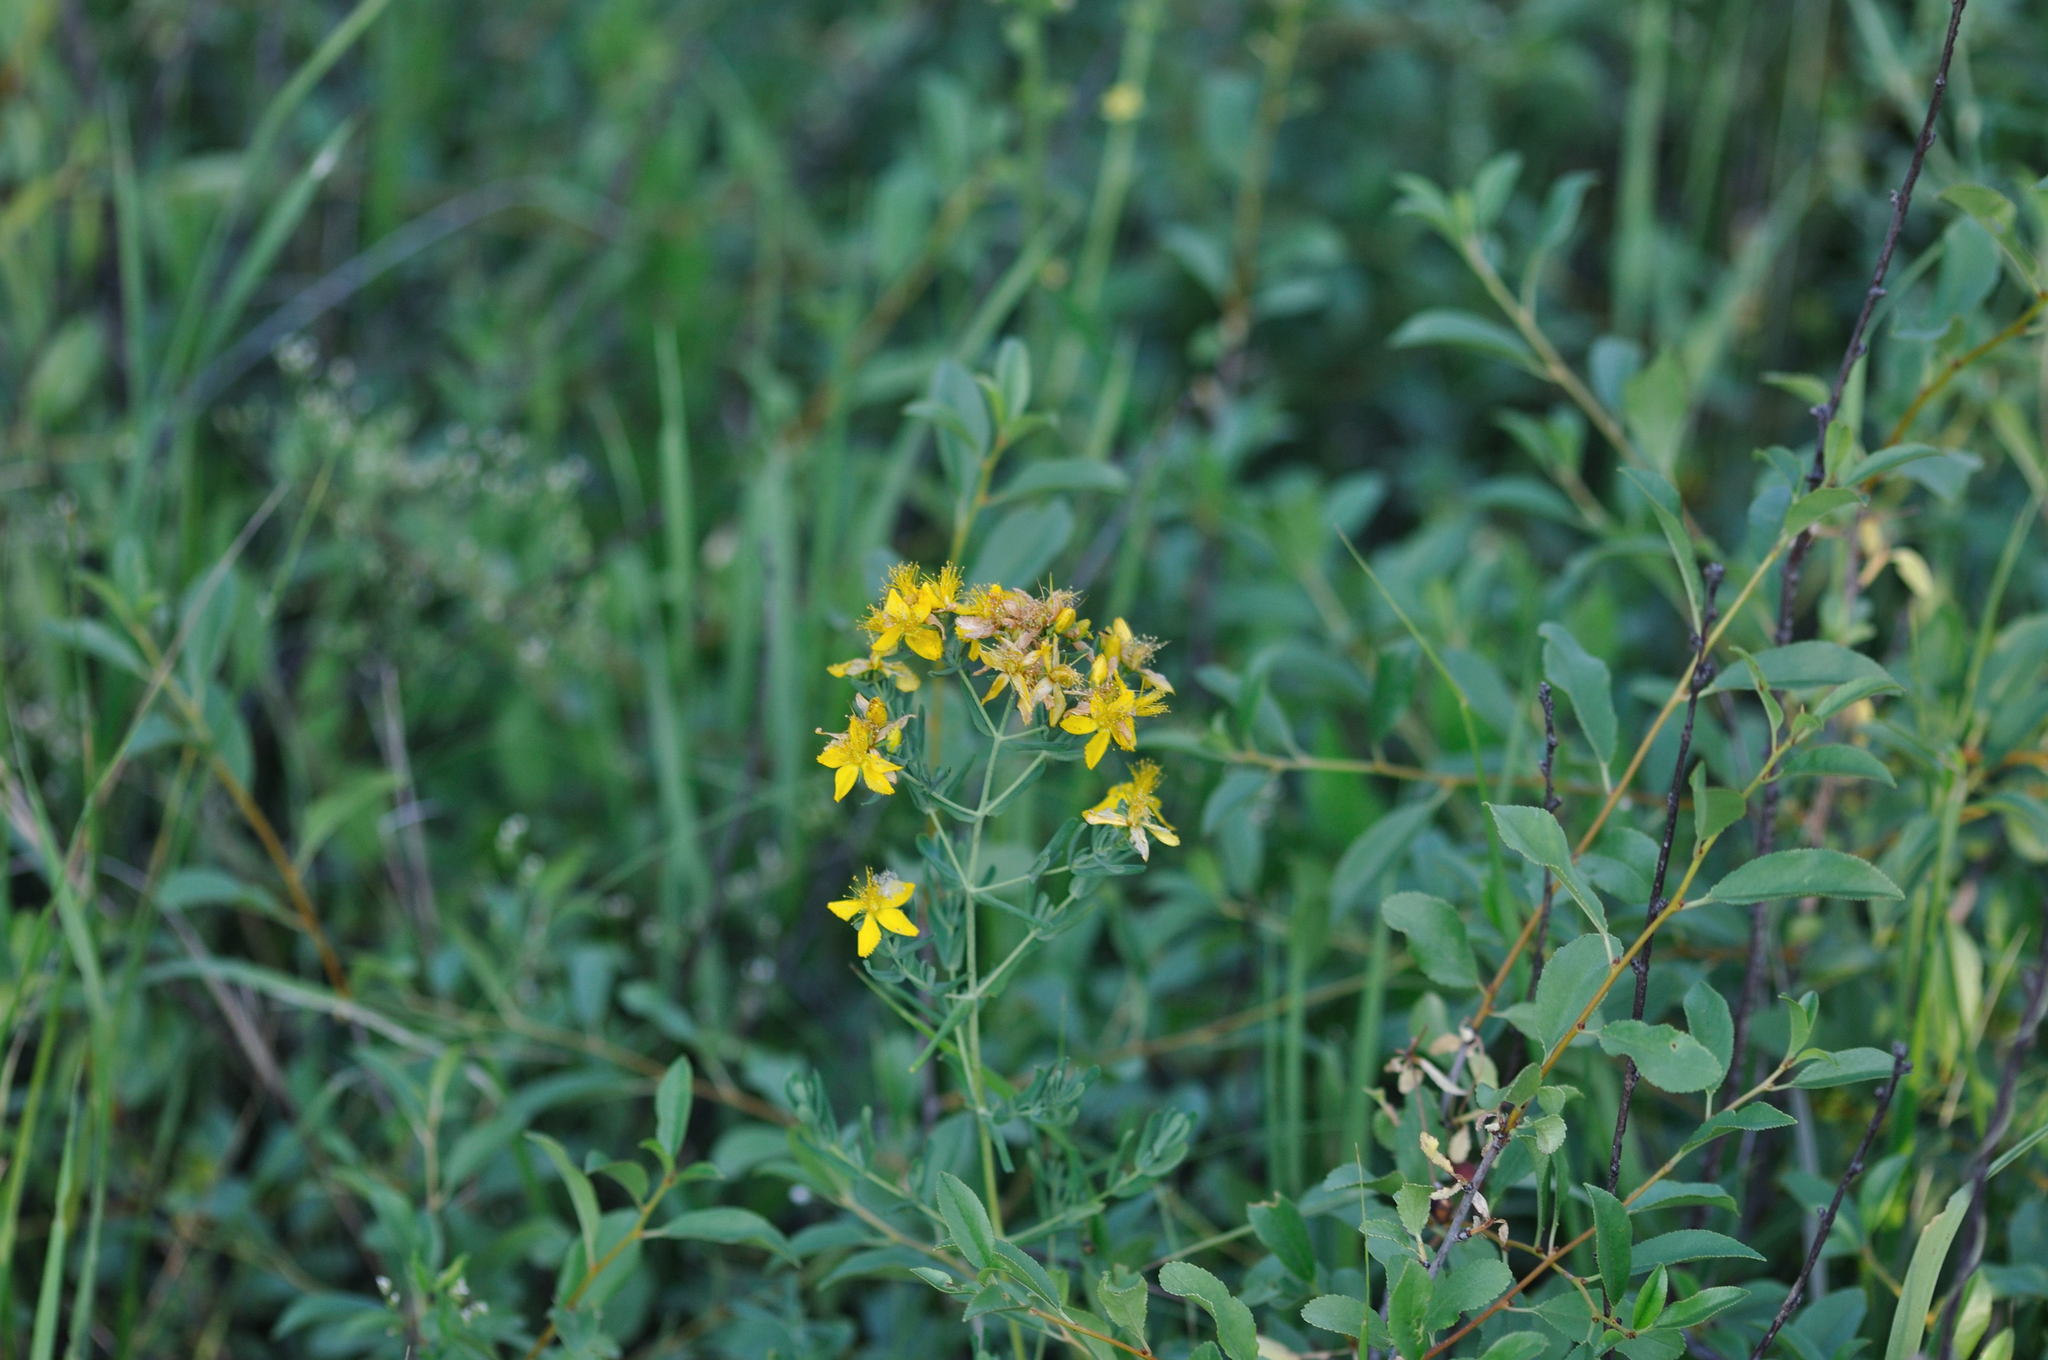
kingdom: Plantae
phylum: Tracheophyta
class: Magnoliopsida
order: Malpighiales
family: Hypericaceae
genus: Hypericum
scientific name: Hypericum perforatum
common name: Common st. johnswort
